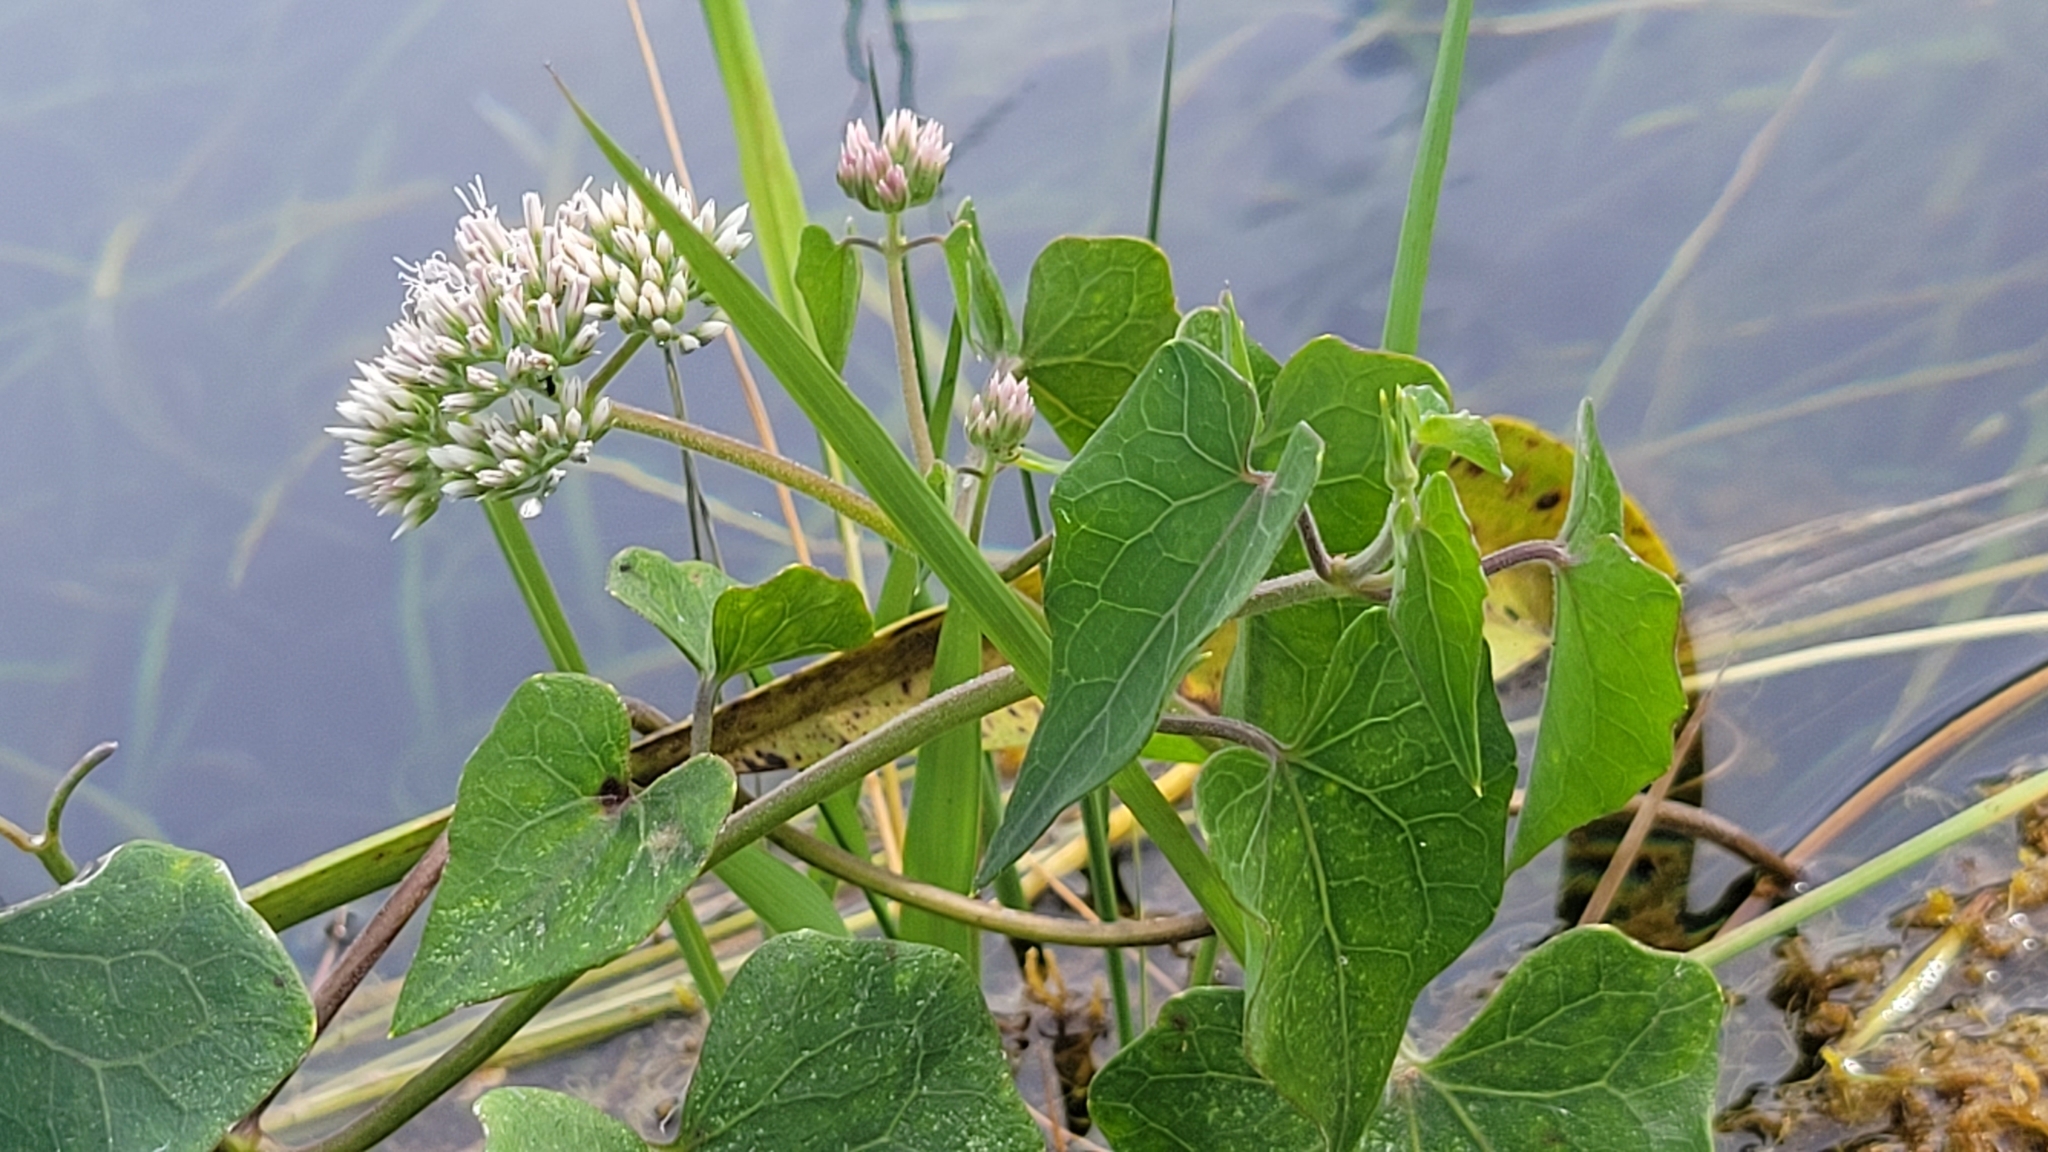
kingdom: Plantae
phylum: Tracheophyta
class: Magnoliopsida
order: Asterales
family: Asteraceae
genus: Mikania
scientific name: Mikania scandens
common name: Climbing hempvine
